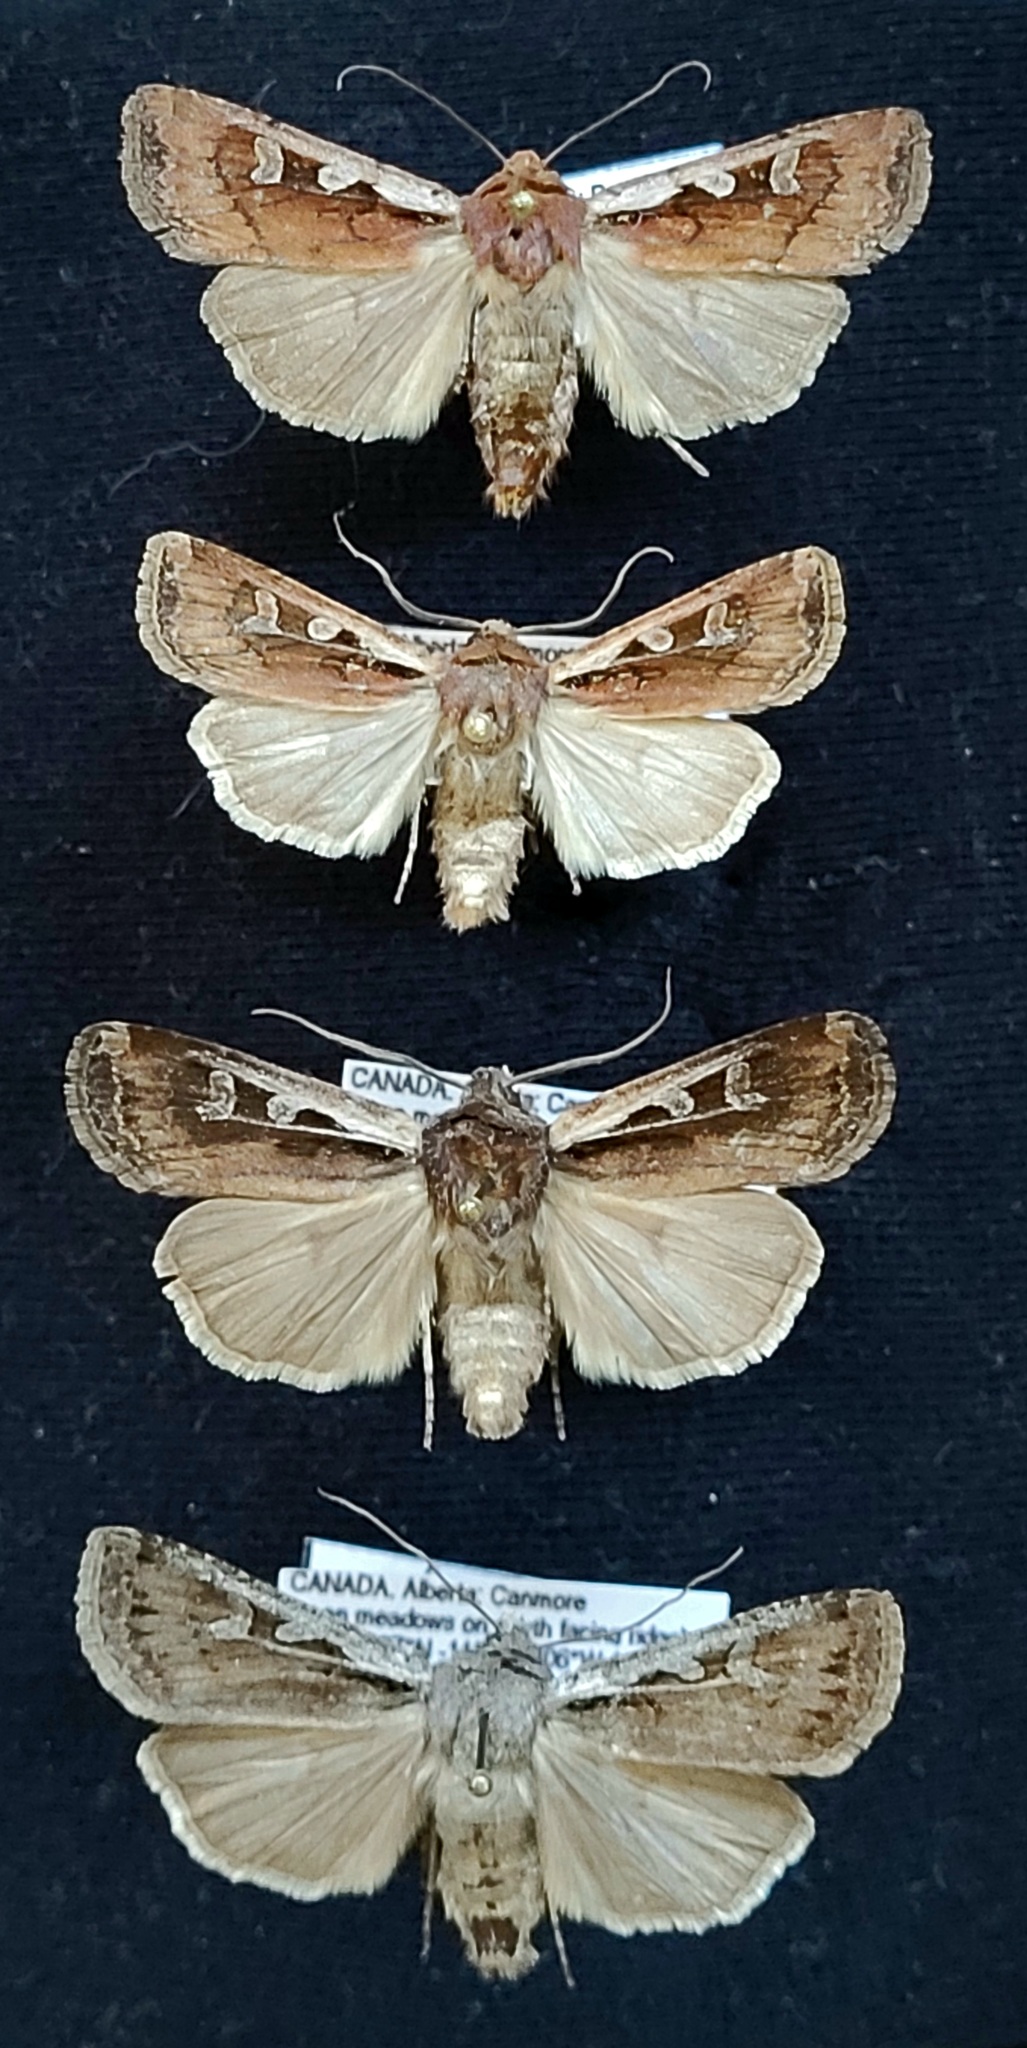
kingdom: Animalia
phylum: Arthropoda
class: Insecta
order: Lepidoptera
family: Noctuidae
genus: Euxoa
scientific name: Euxoa castanea
